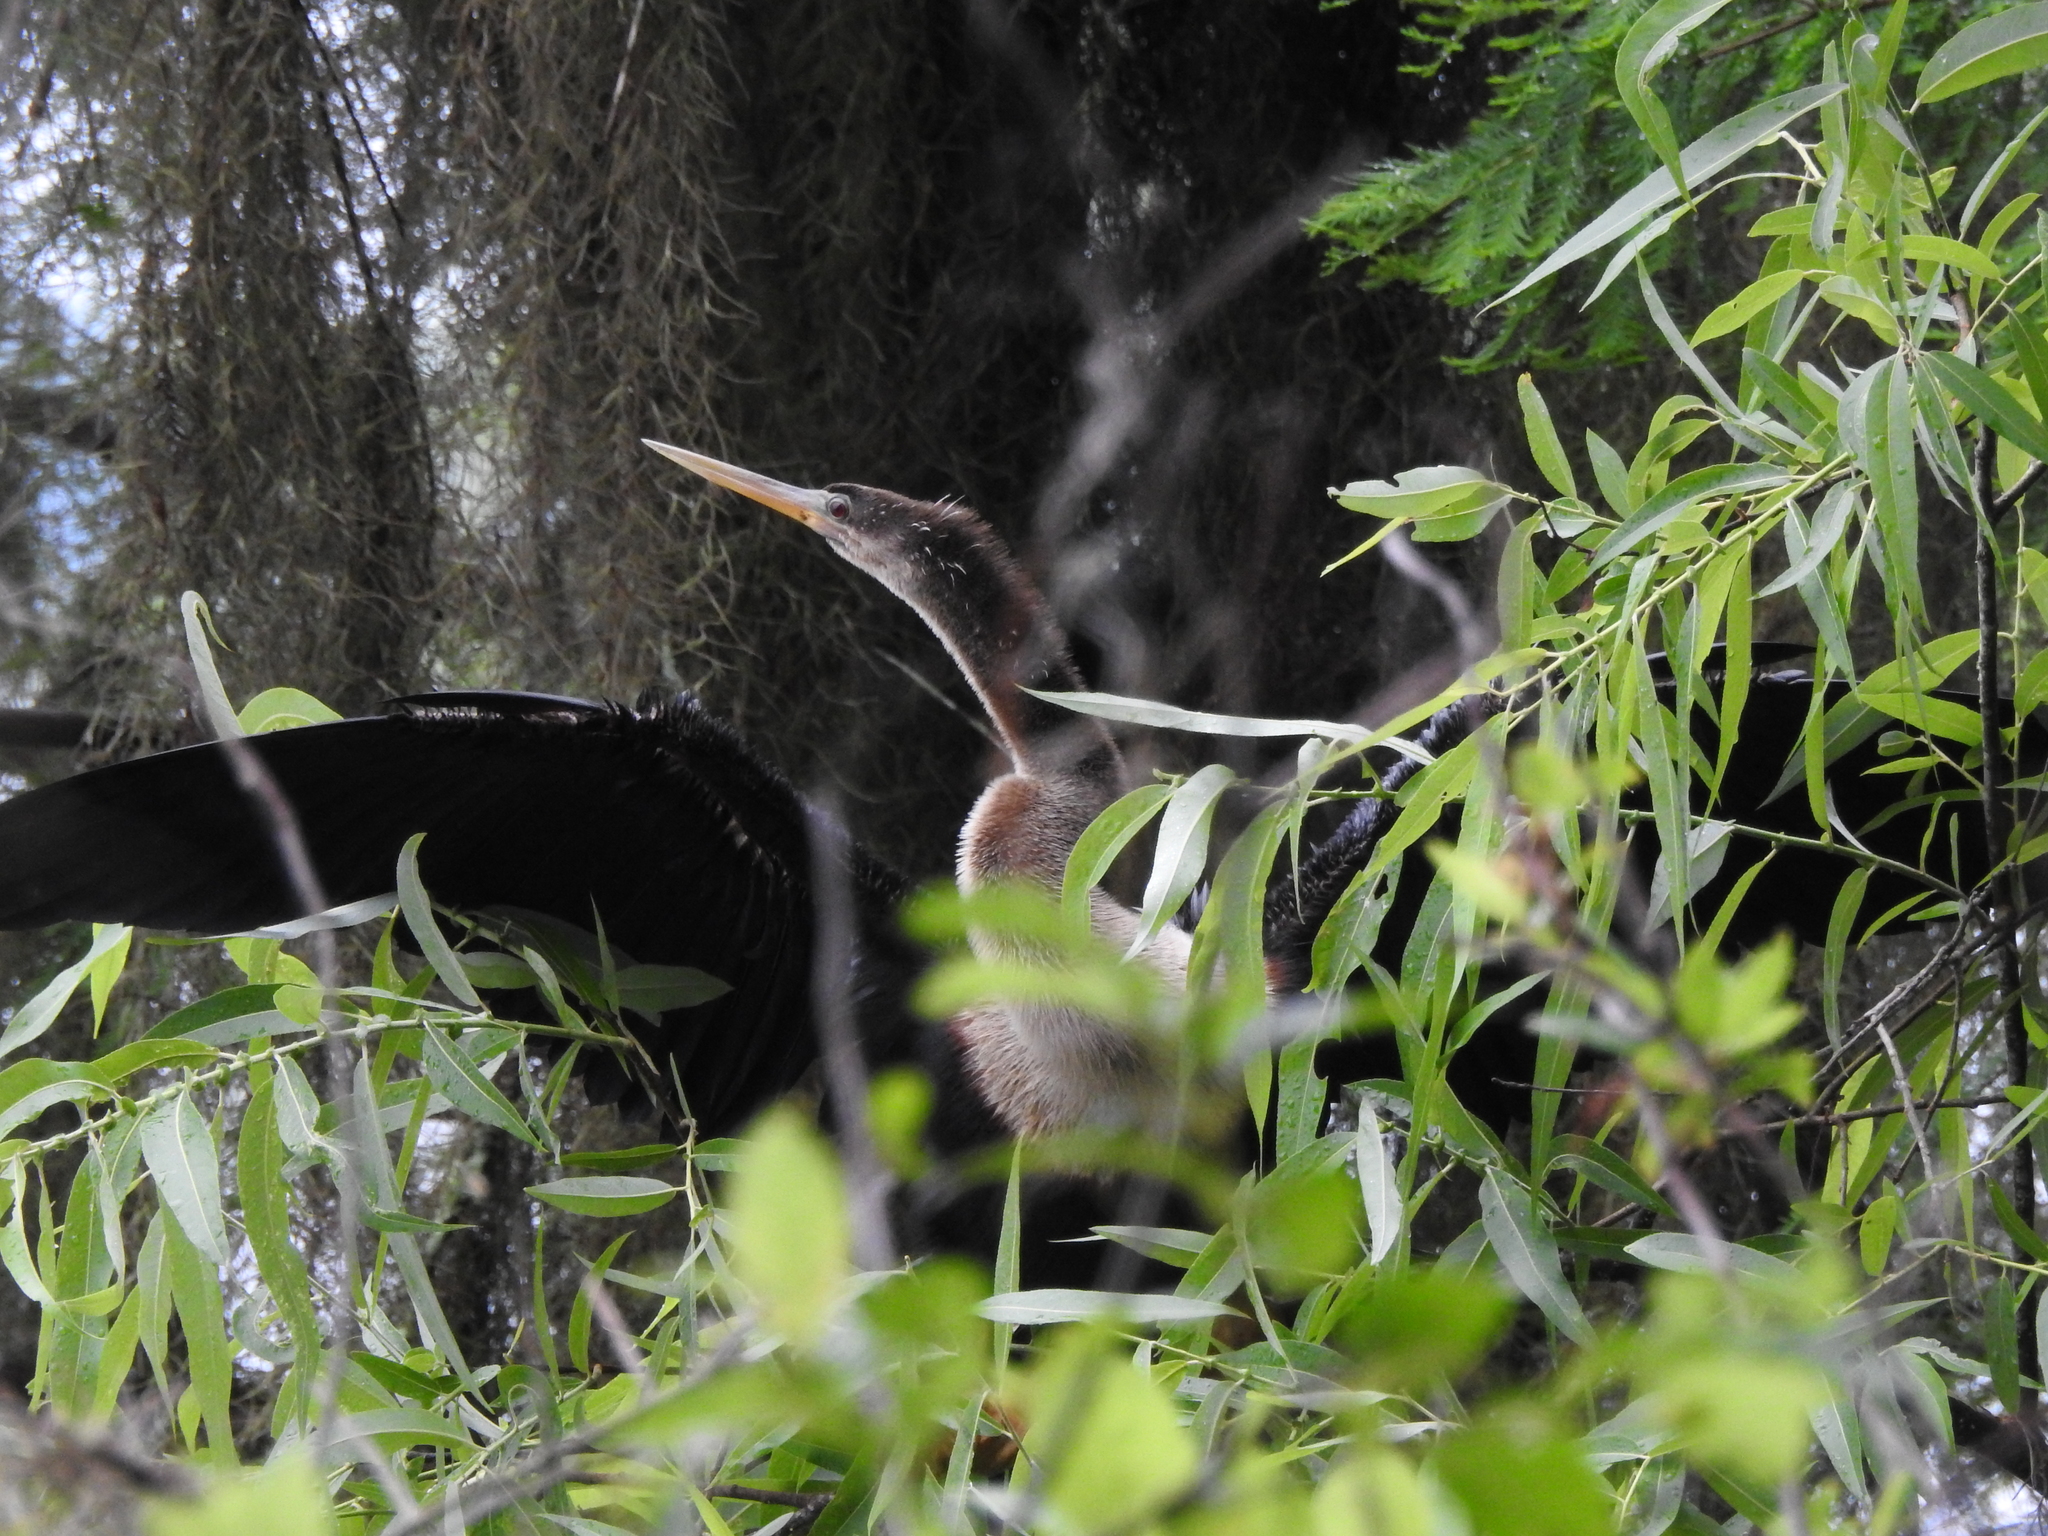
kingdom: Animalia
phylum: Chordata
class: Aves
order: Suliformes
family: Anhingidae
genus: Anhinga
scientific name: Anhinga anhinga
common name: Anhinga
